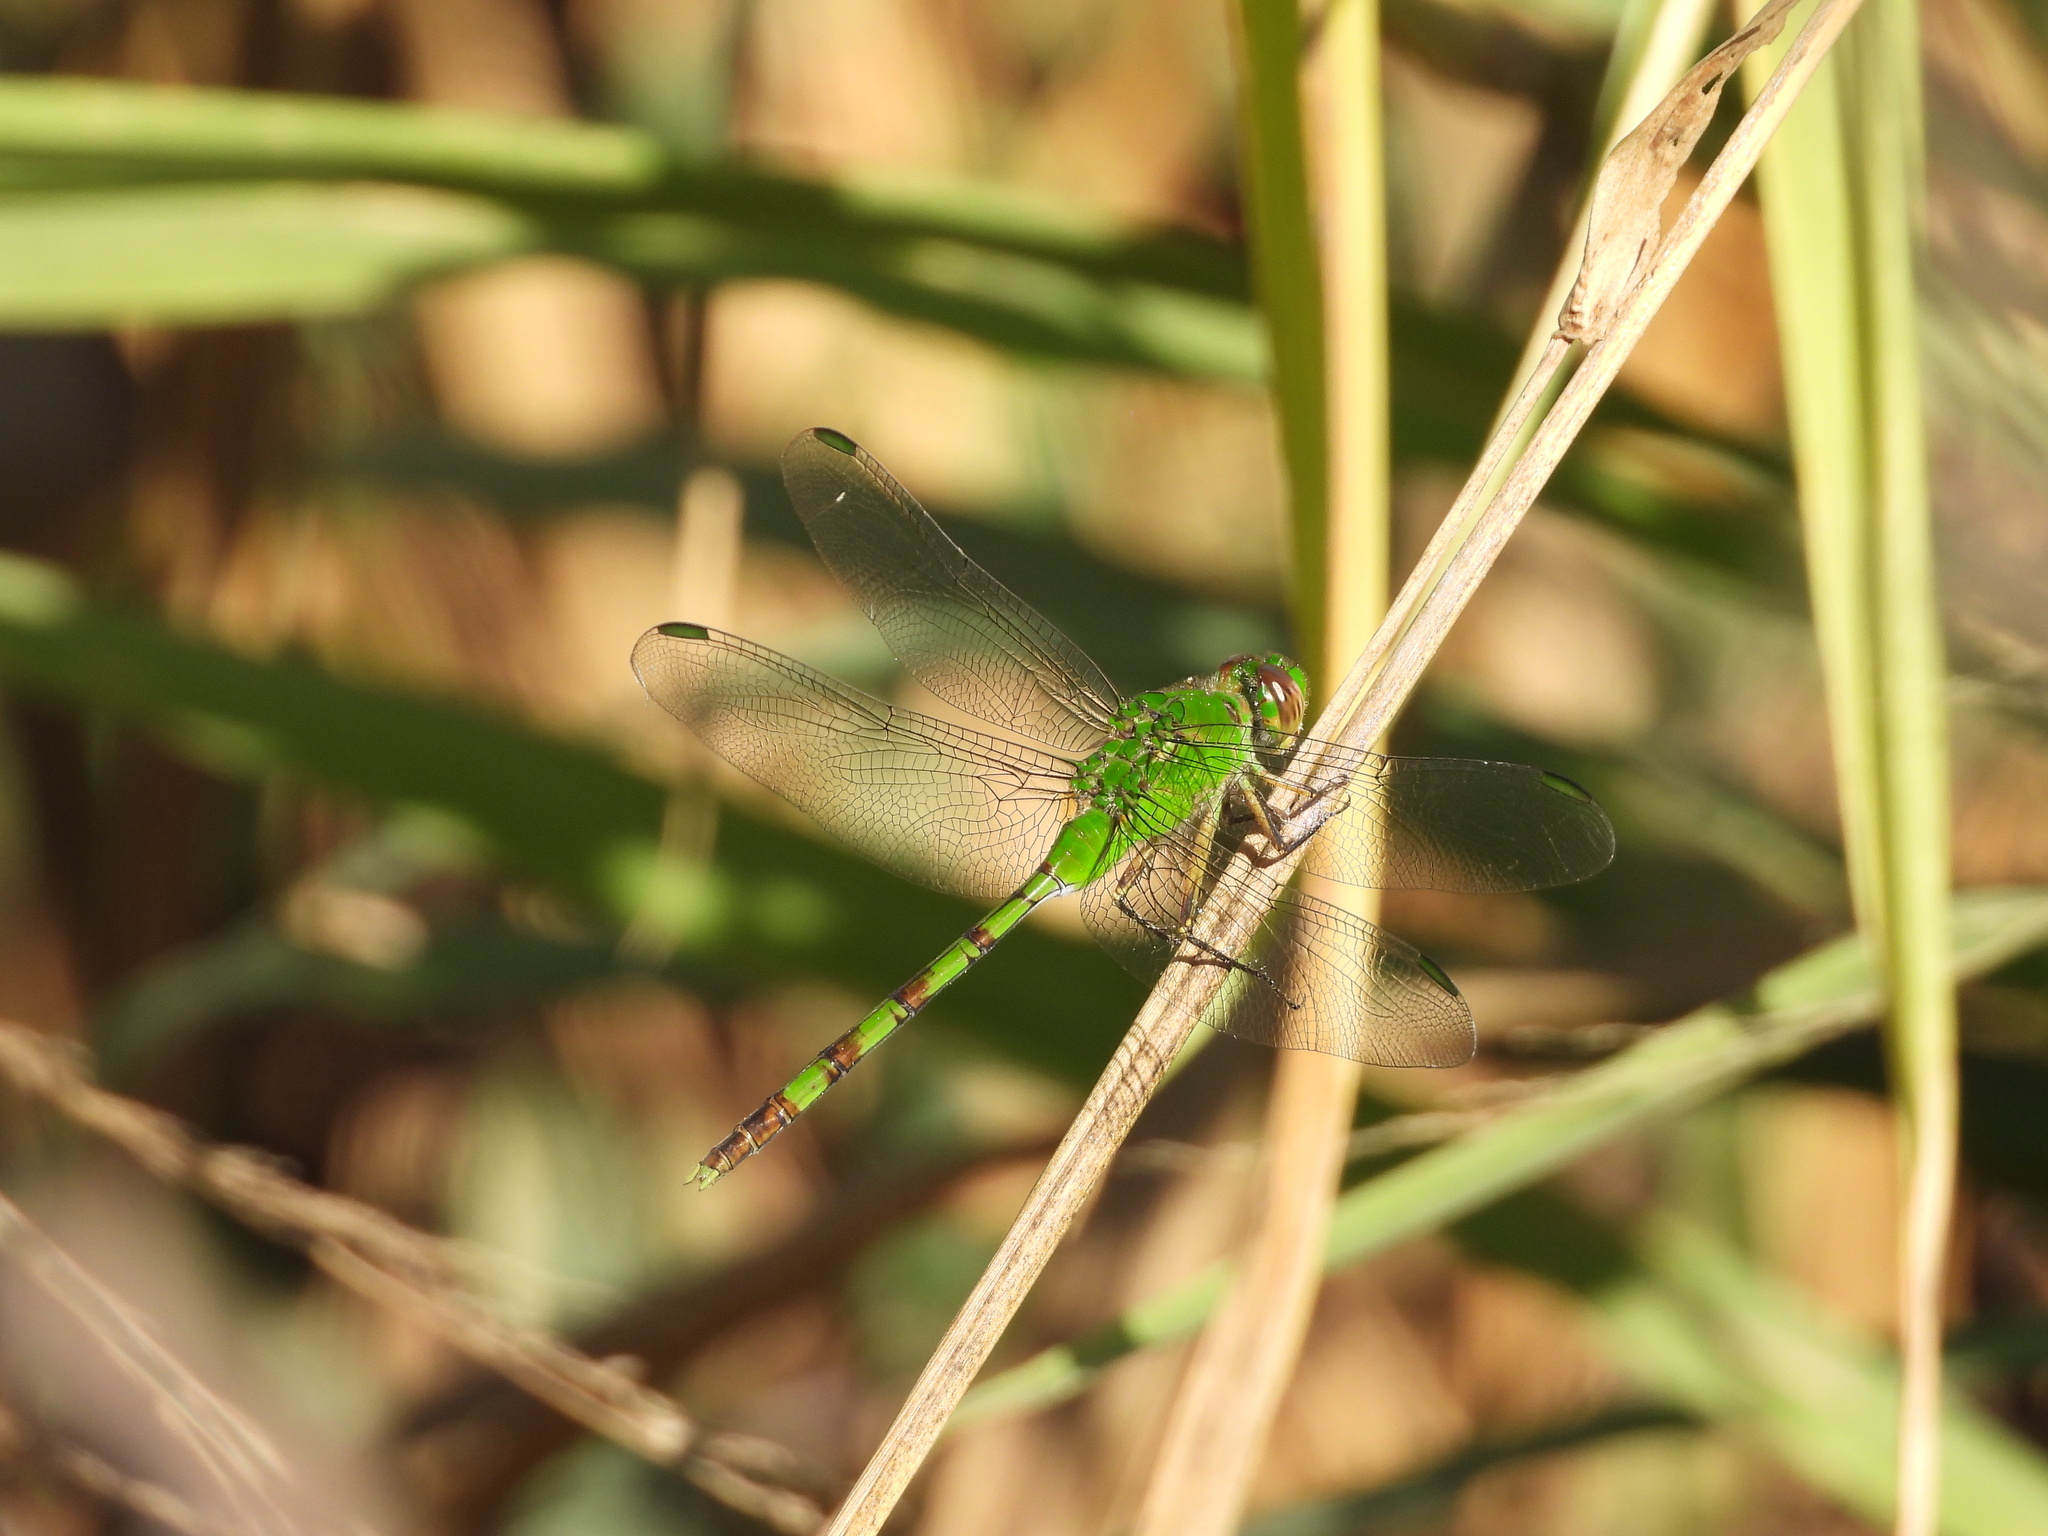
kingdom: Animalia
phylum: Arthropoda
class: Insecta
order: Odonata
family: Libellulidae
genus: Erythemis
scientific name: Erythemis vesiculosa
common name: Great pondhawk
